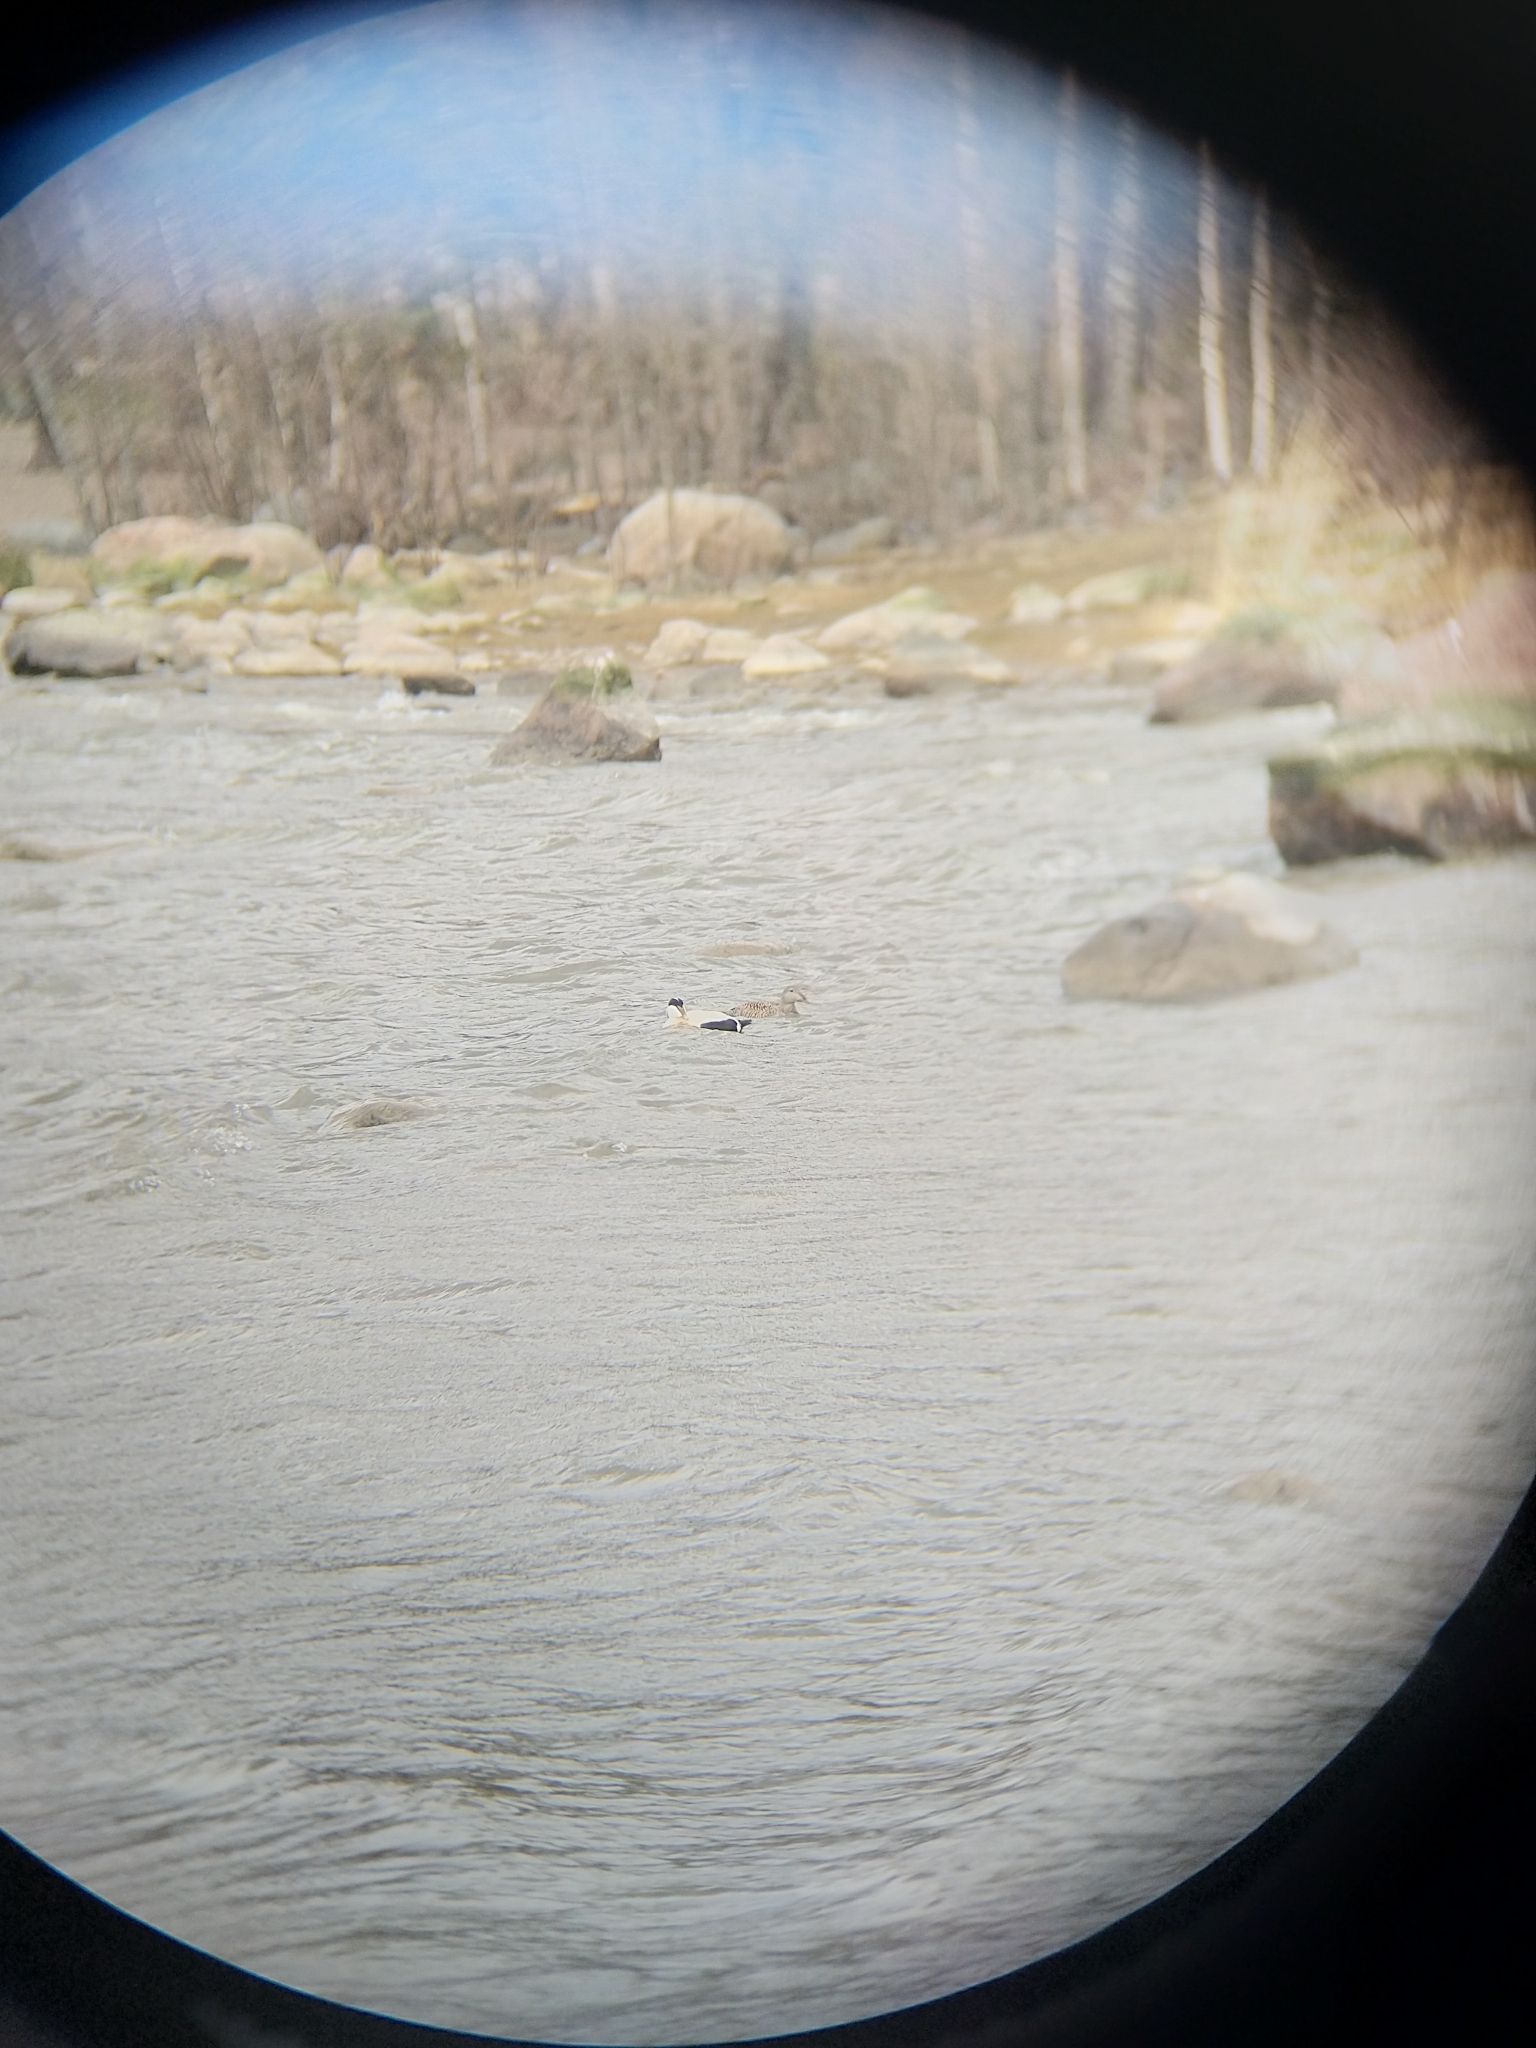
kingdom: Animalia
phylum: Chordata
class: Aves
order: Anseriformes
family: Anatidae
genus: Somateria
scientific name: Somateria mollissima
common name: Common eider
